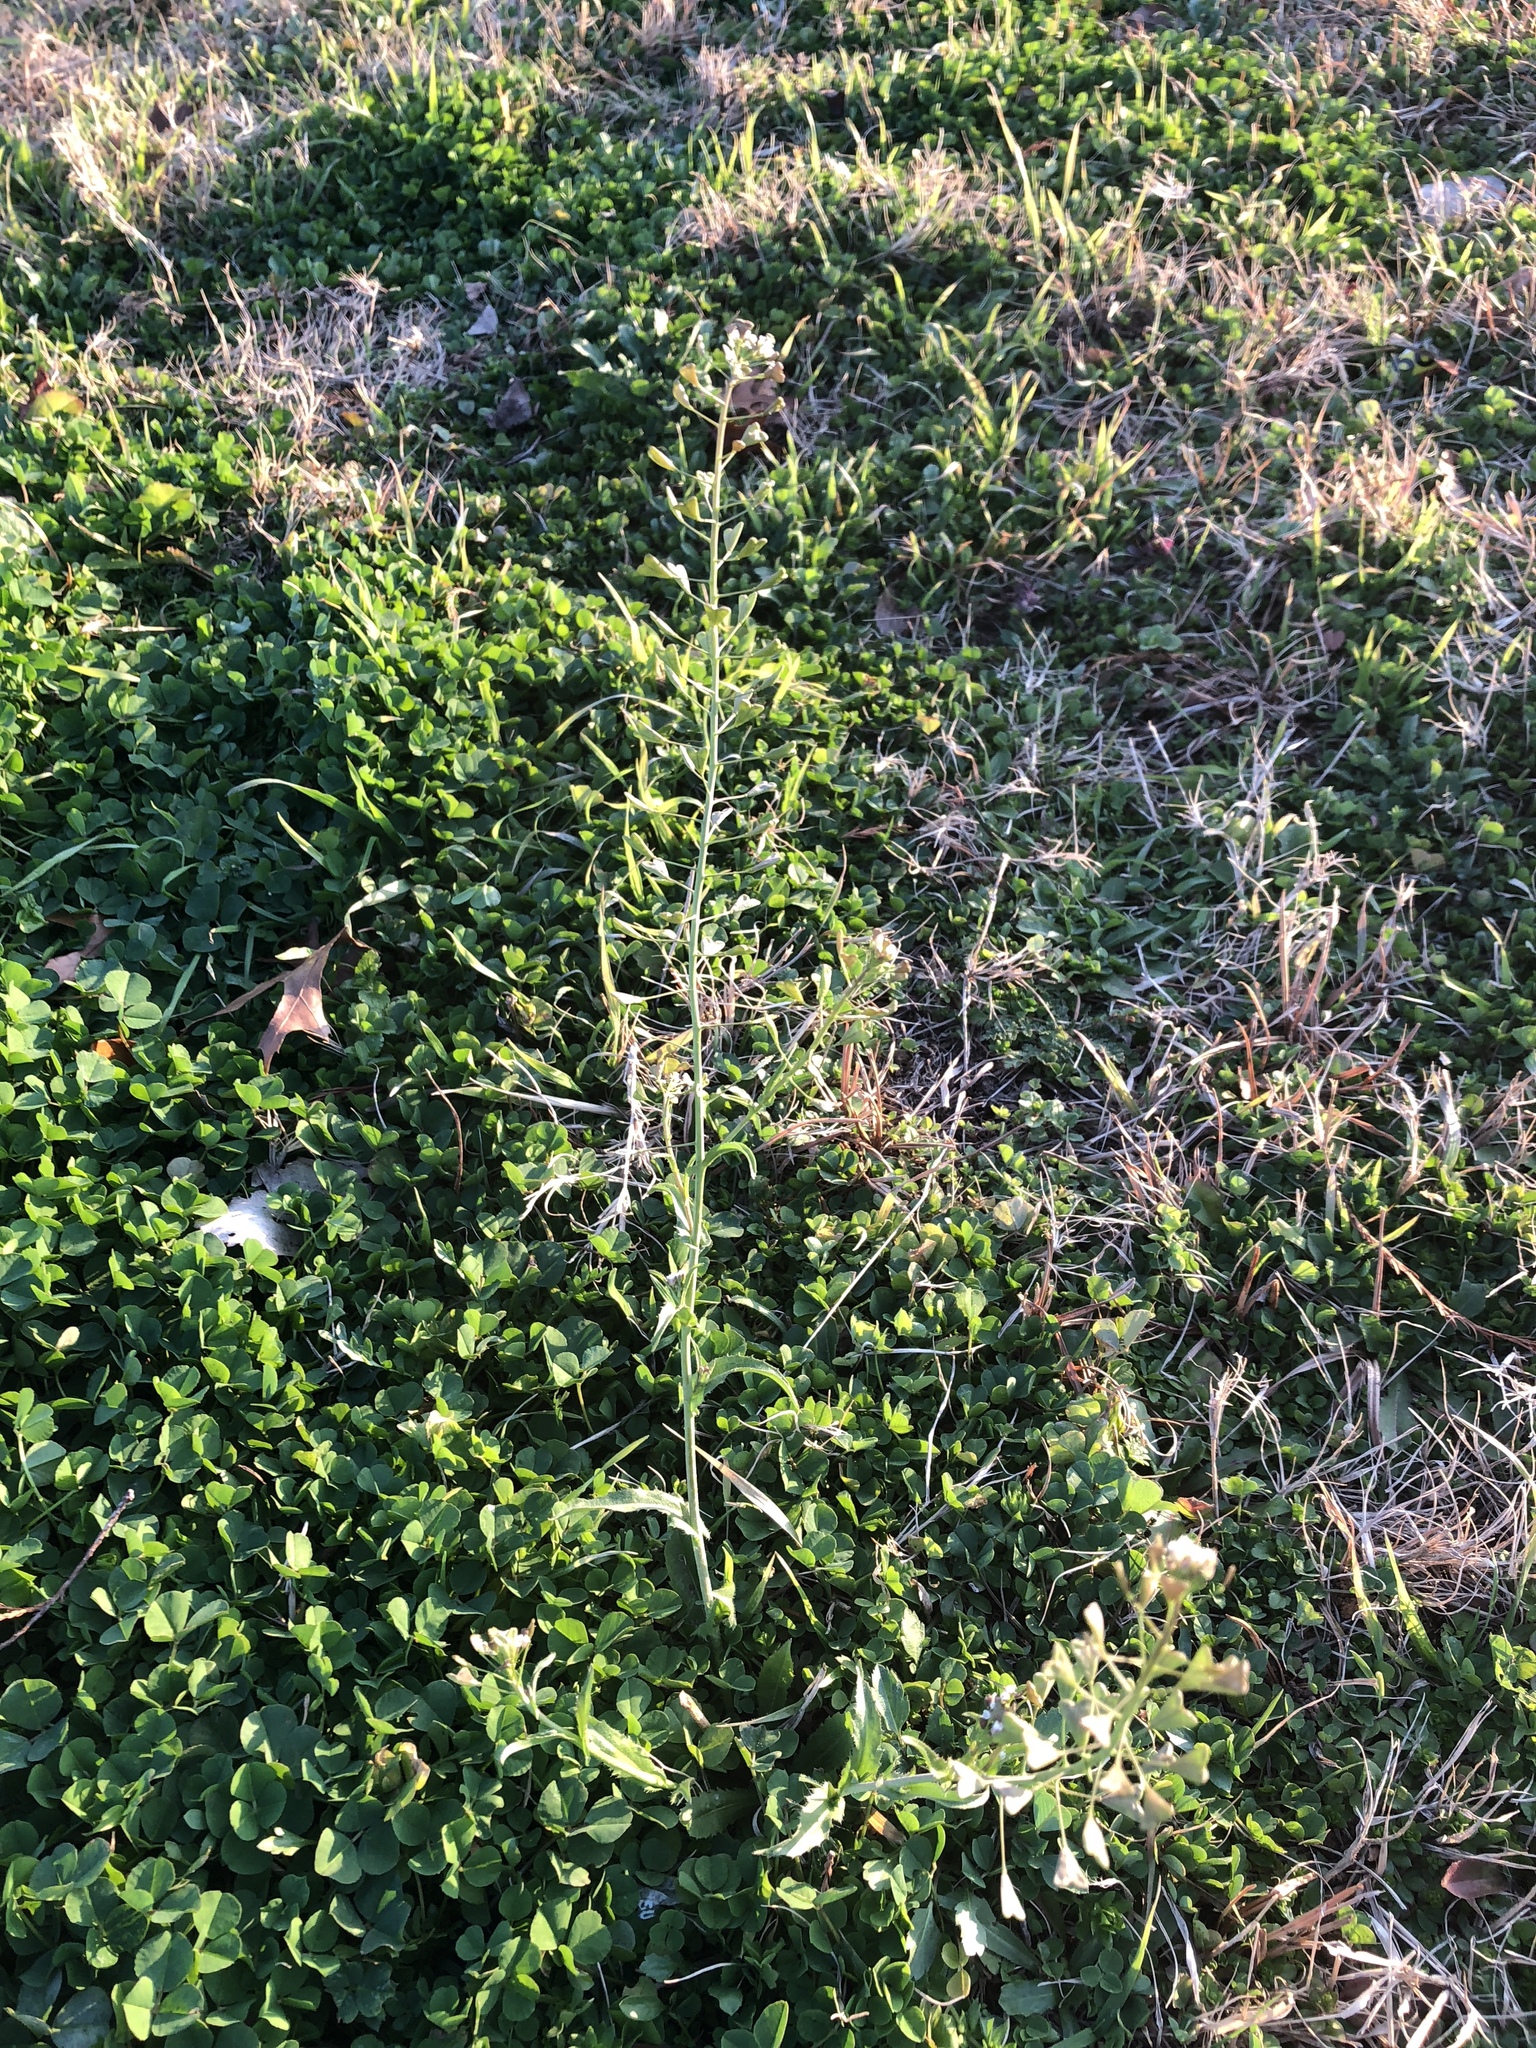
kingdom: Plantae
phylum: Tracheophyta
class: Magnoliopsida
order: Brassicales
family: Brassicaceae
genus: Capsella
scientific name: Capsella bursa-pastoris
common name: Shepherd's purse
